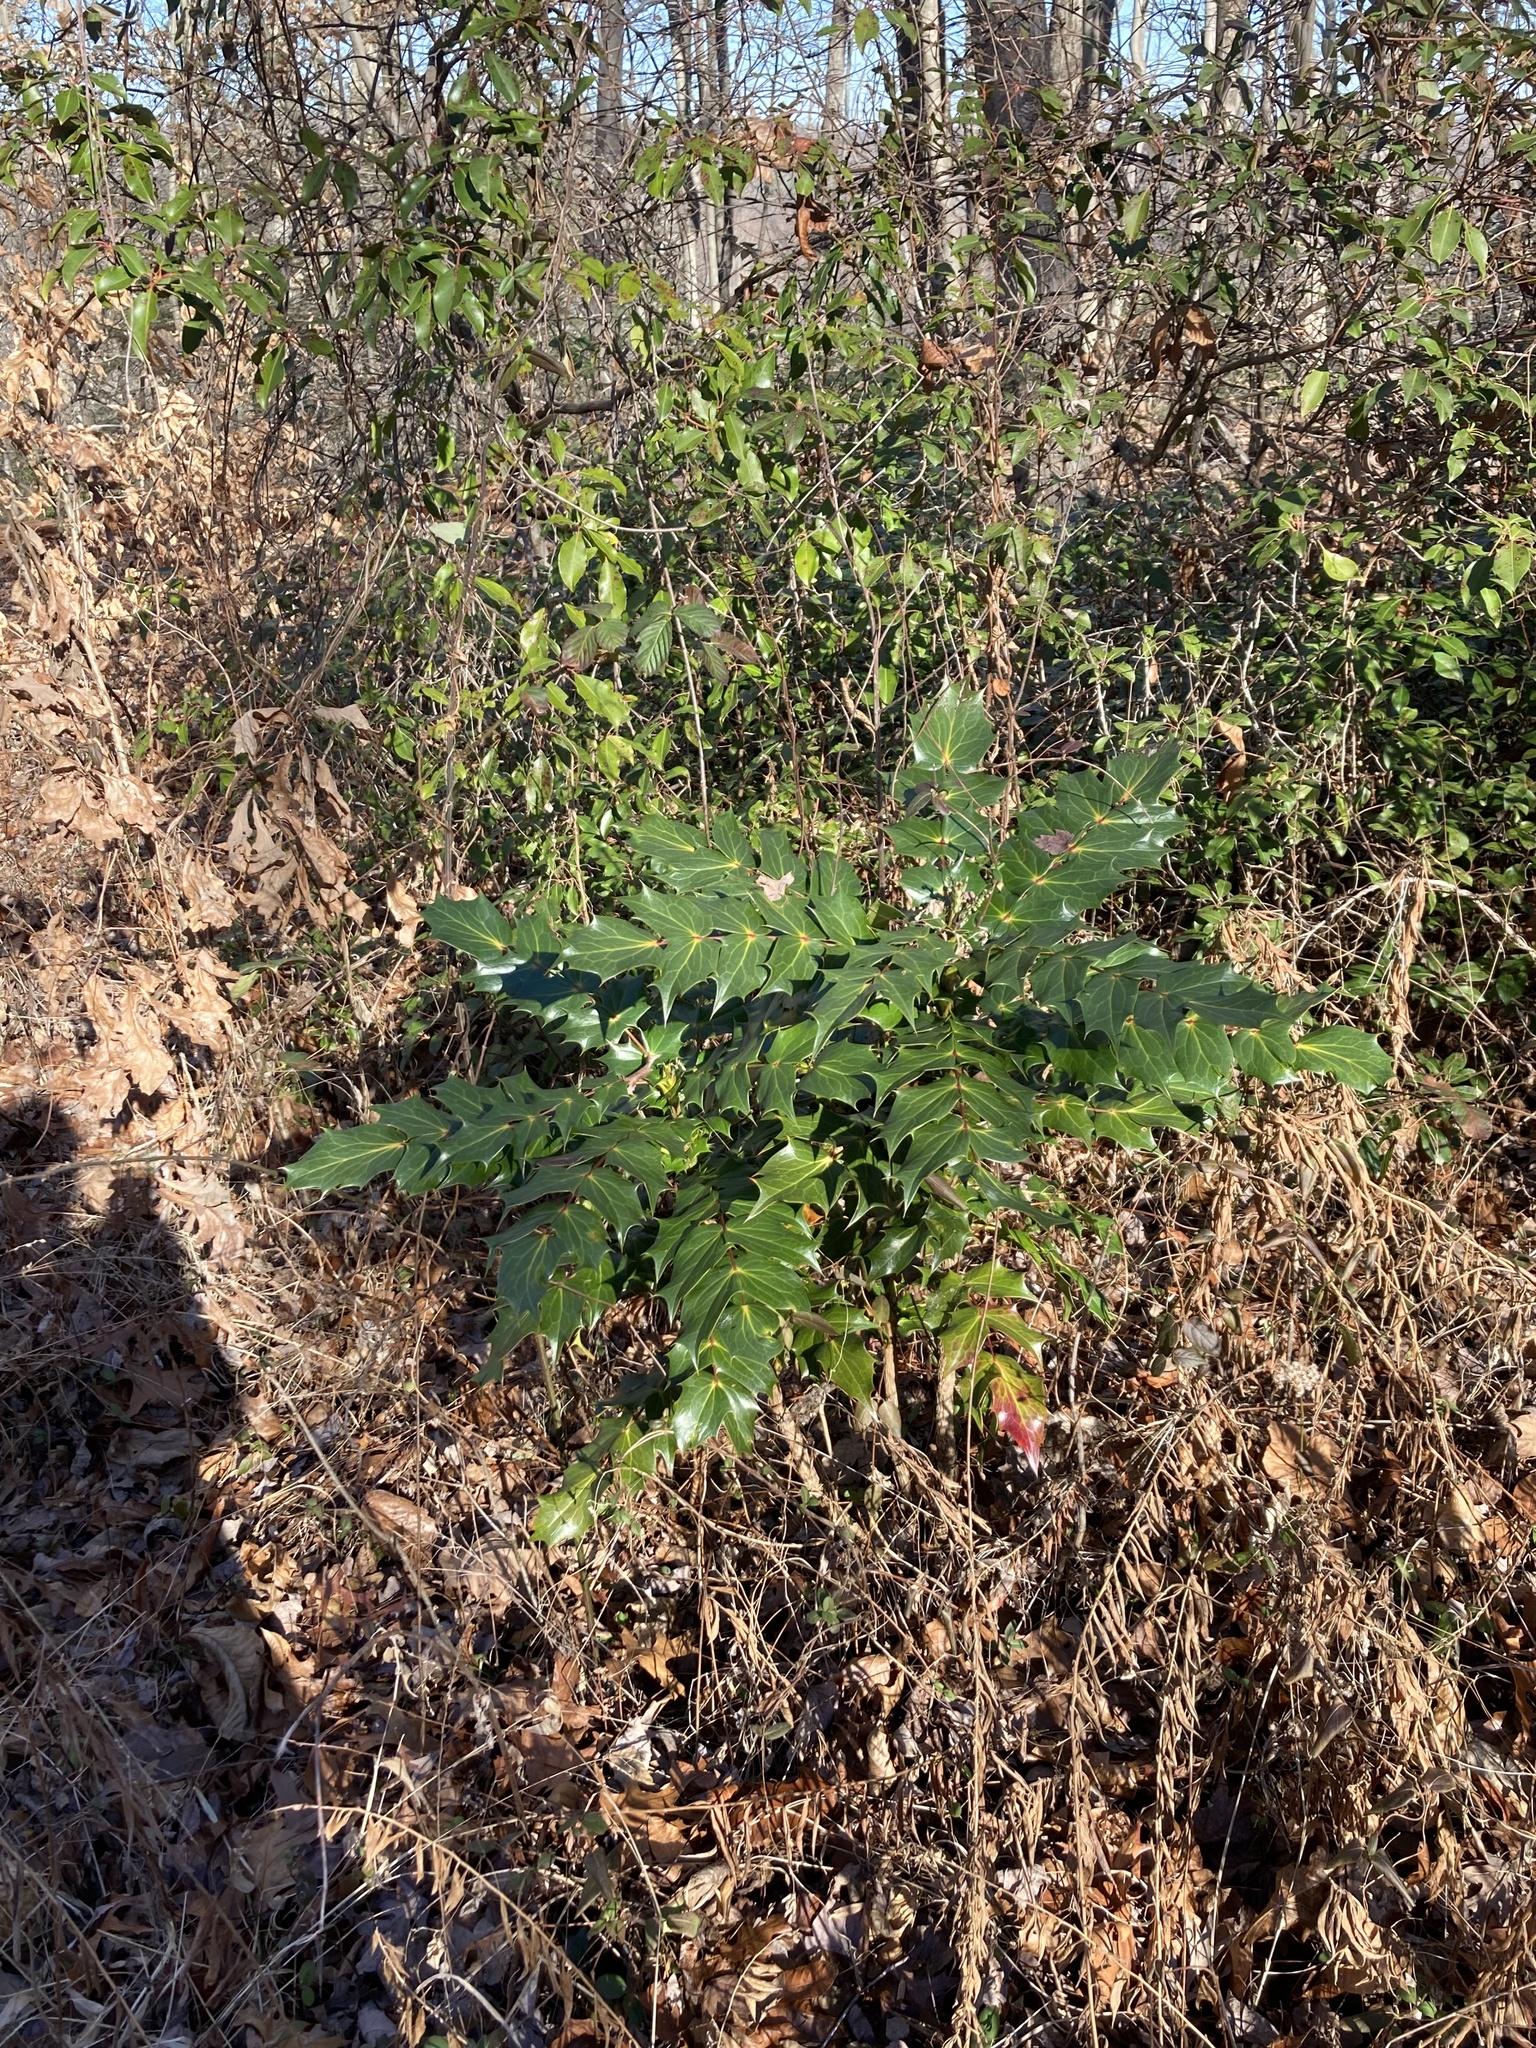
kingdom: Plantae
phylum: Tracheophyta
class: Magnoliopsida
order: Ranunculales
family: Berberidaceae
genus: Mahonia
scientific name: Mahonia bealei
